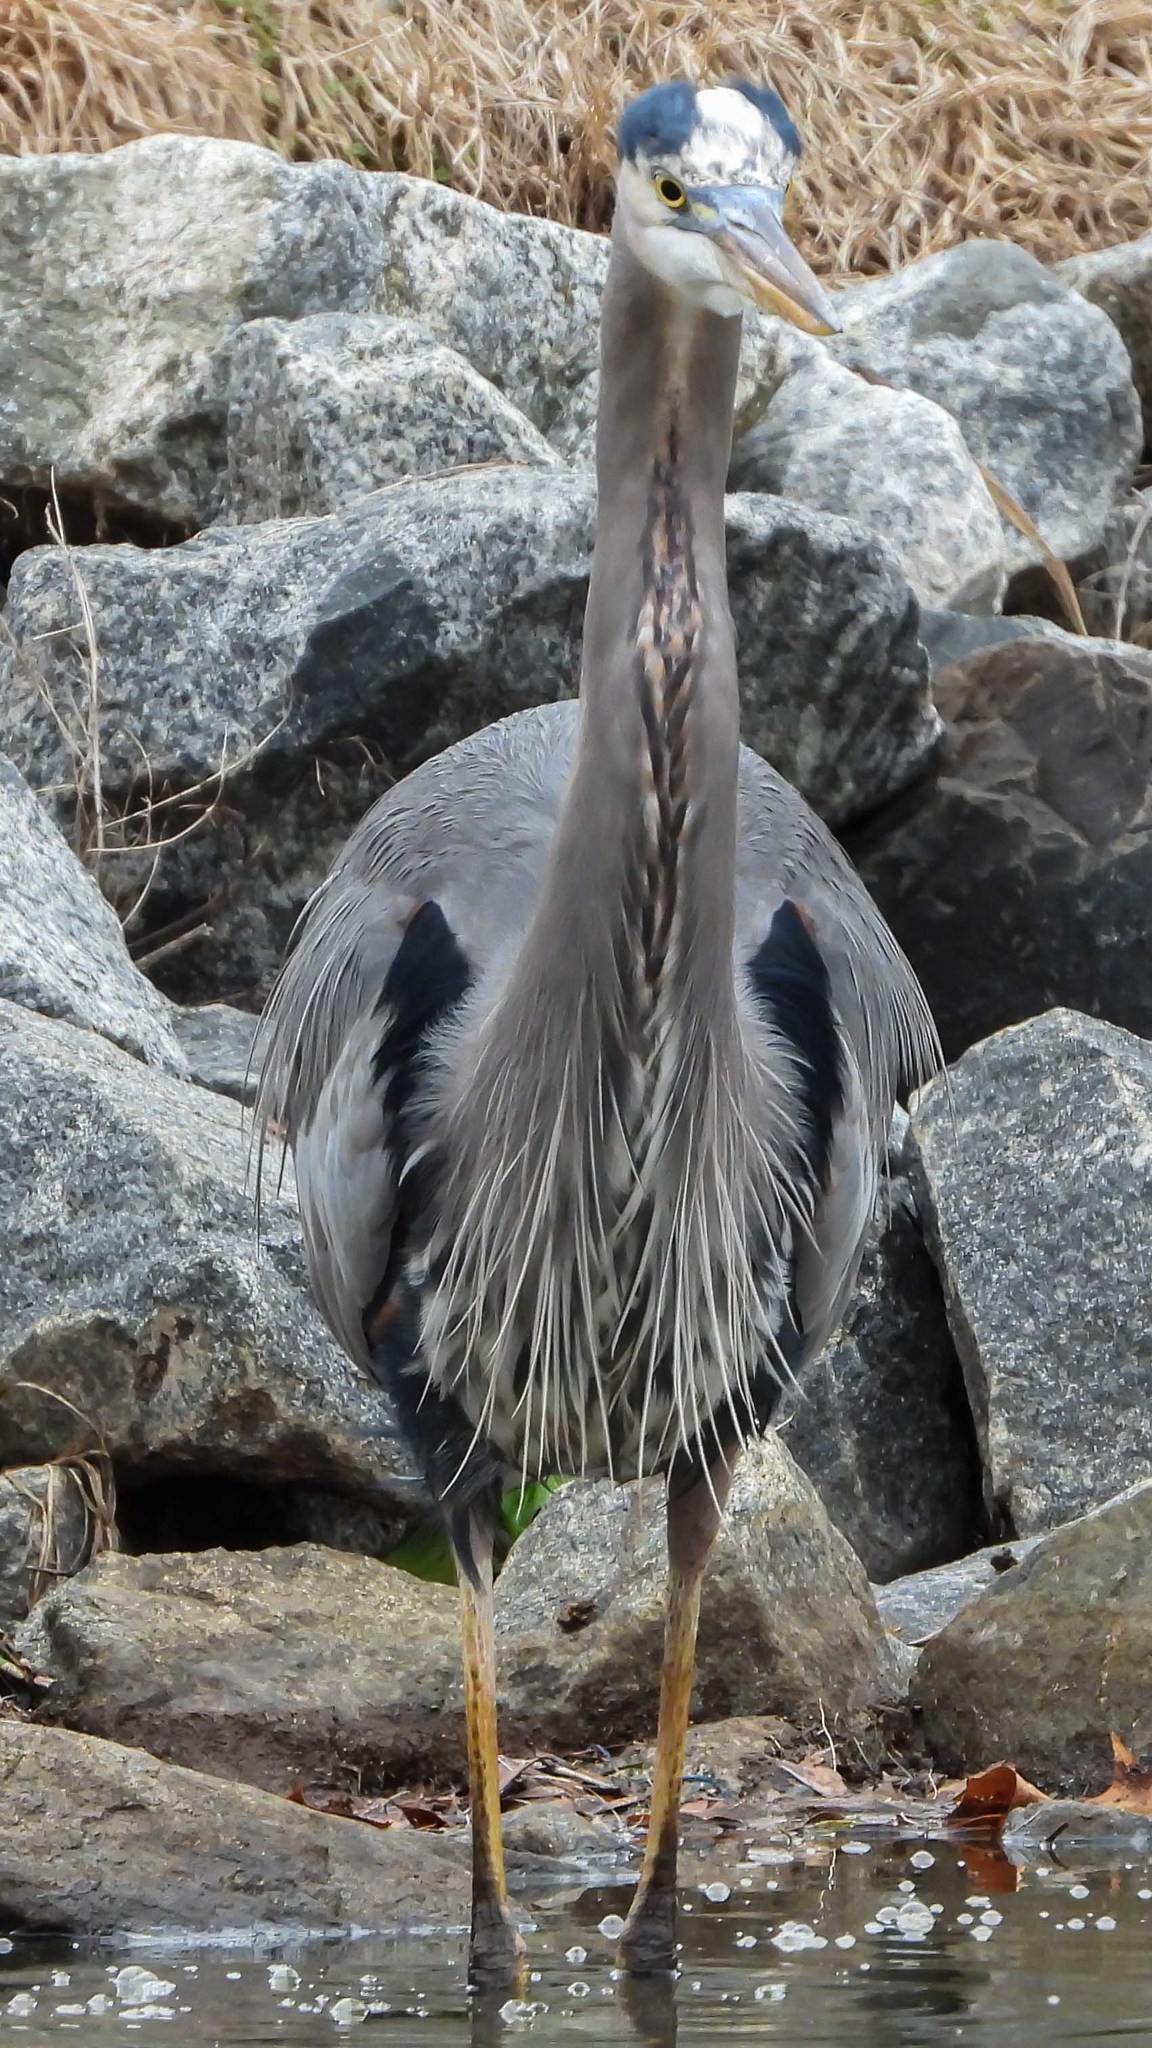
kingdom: Animalia
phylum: Chordata
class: Aves
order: Pelecaniformes
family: Ardeidae
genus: Ardea
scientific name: Ardea herodias
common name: Great blue heron
